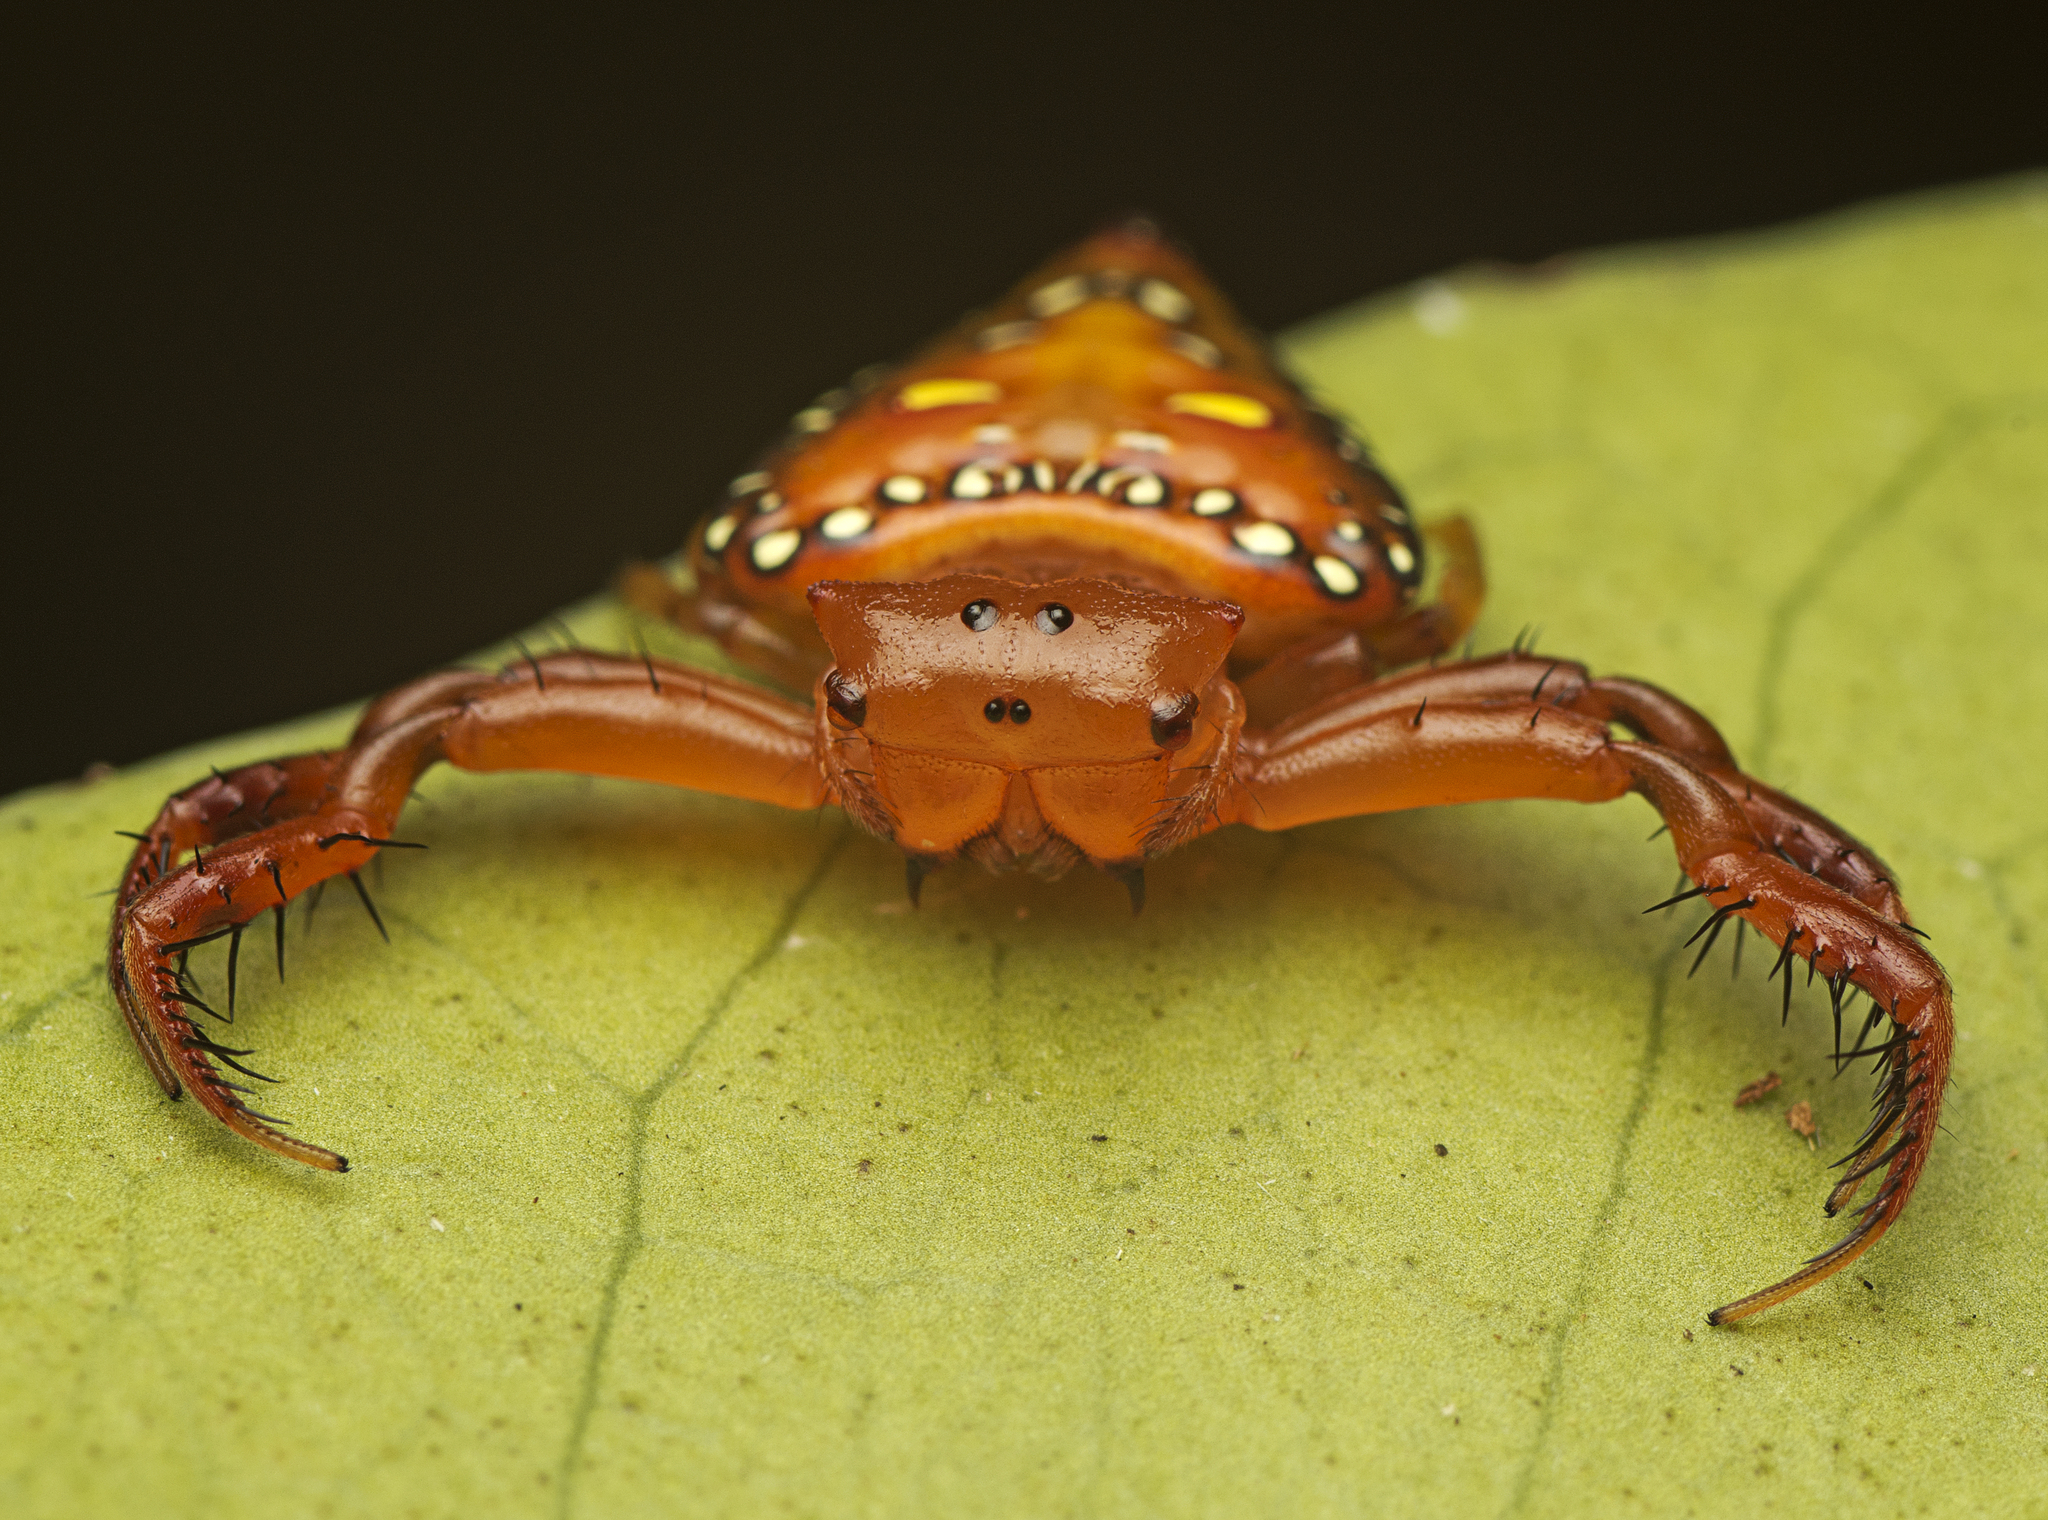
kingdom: Animalia
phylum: Arthropoda
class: Arachnida
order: Araneae
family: Arkyidae
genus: Arkys
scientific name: Arkys lancearius
